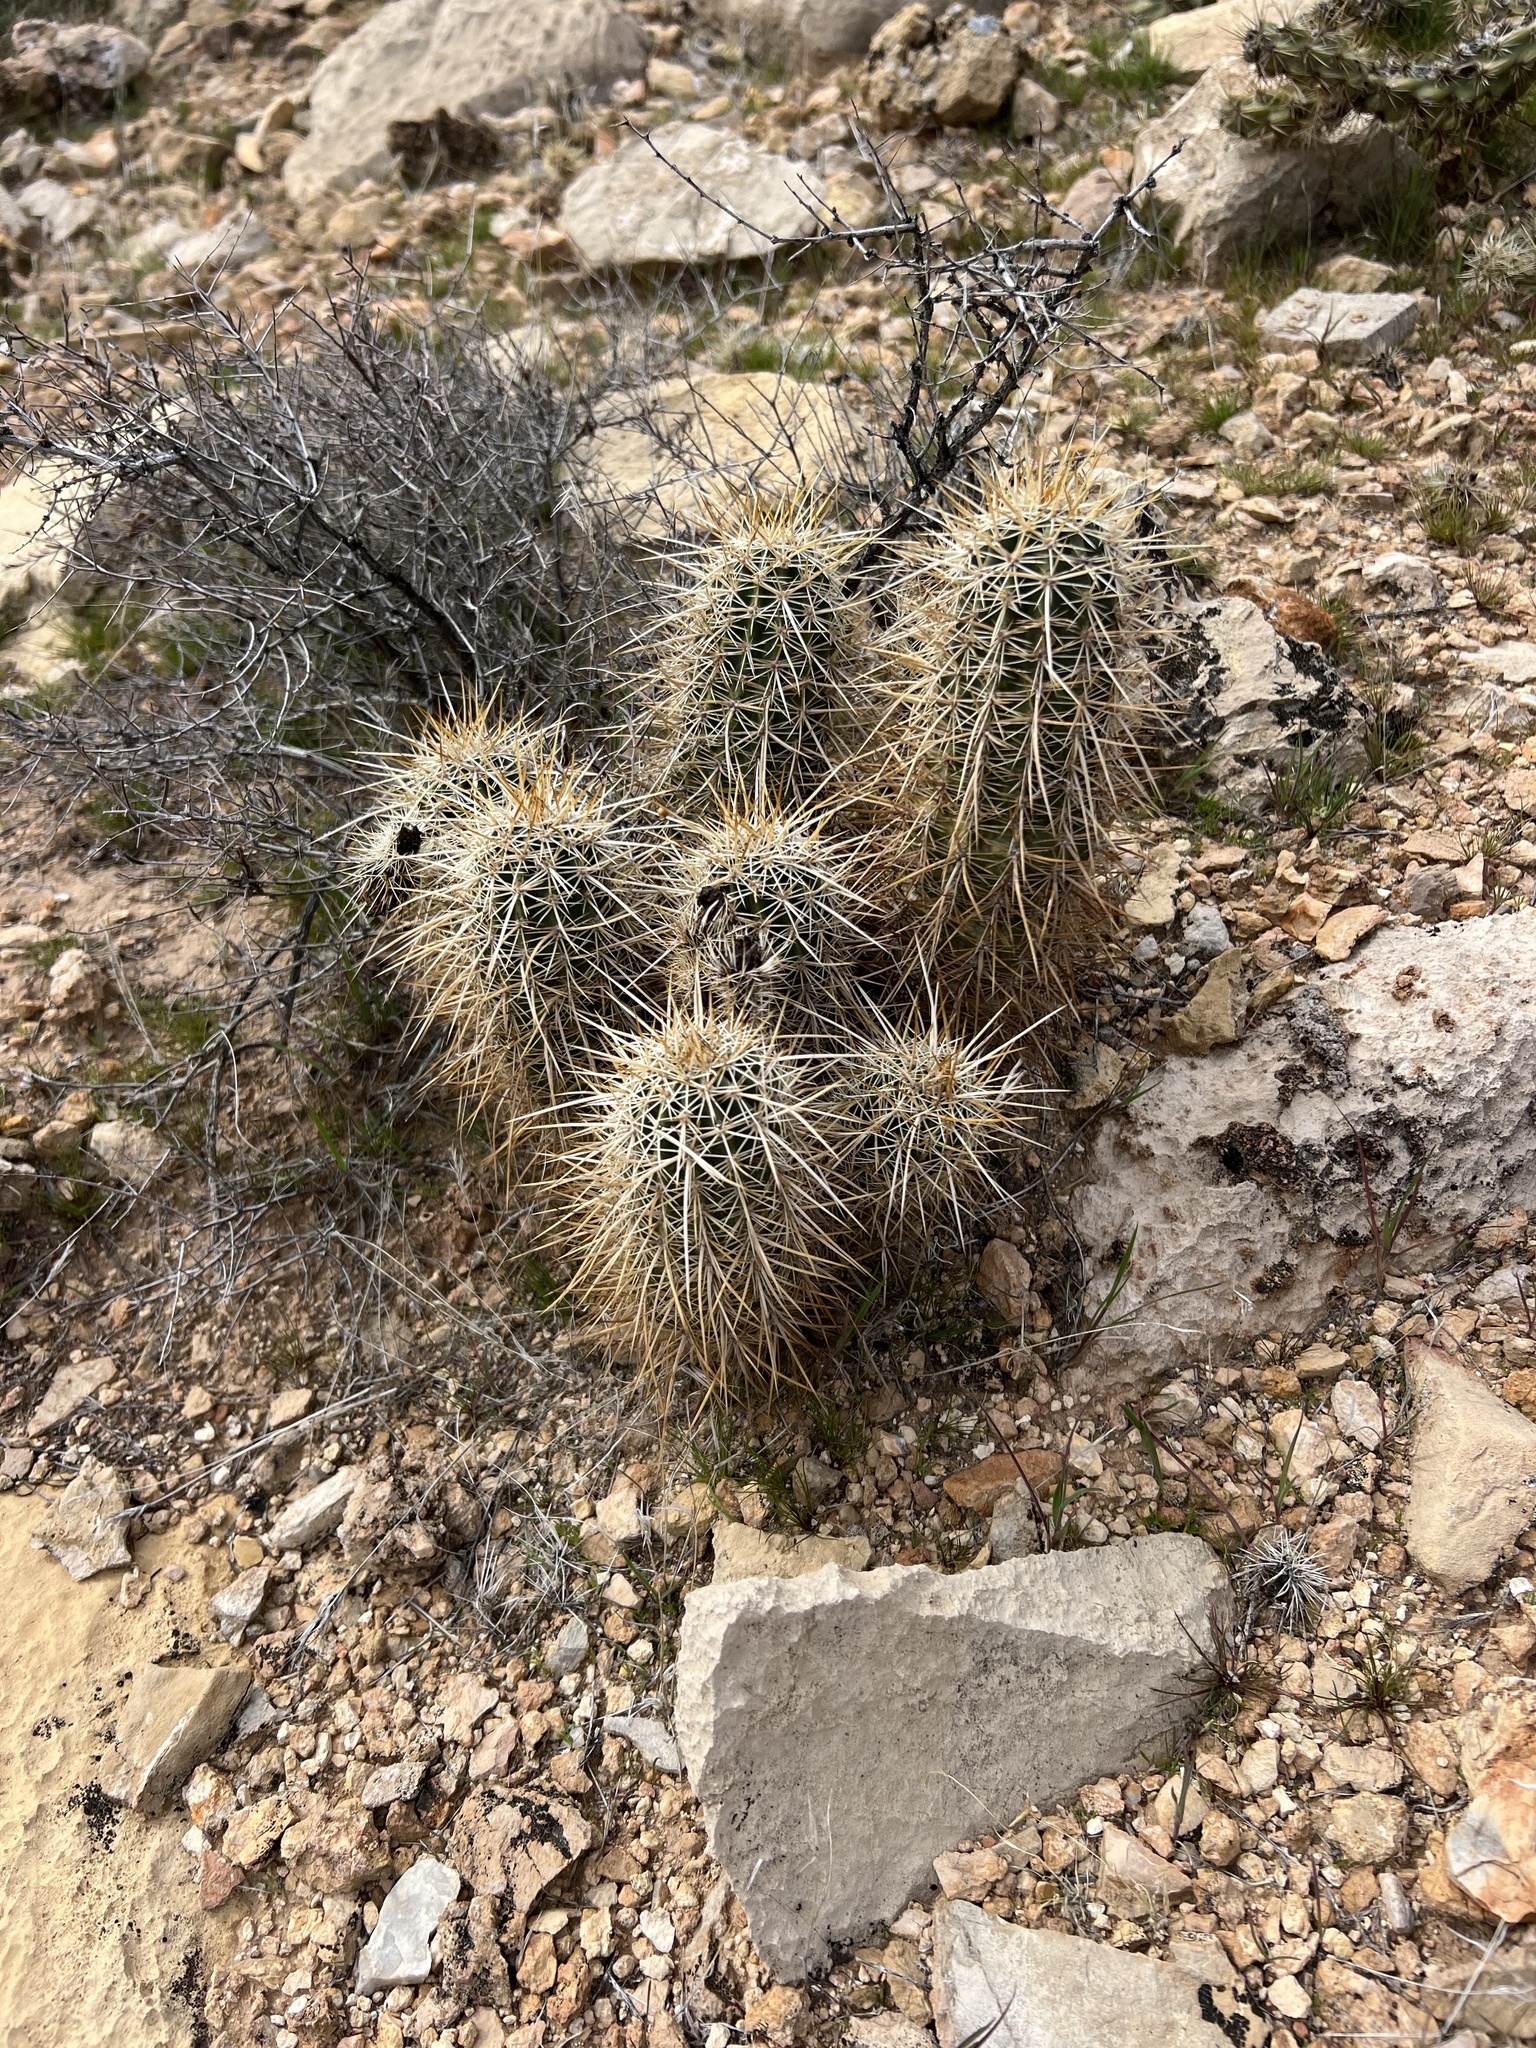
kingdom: Plantae
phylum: Tracheophyta
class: Magnoliopsida
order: Caryophyllales
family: Cactaceae
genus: Echinocereus
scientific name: Echinocereus engelmannii
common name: Engelmann's hedgehog cactus
